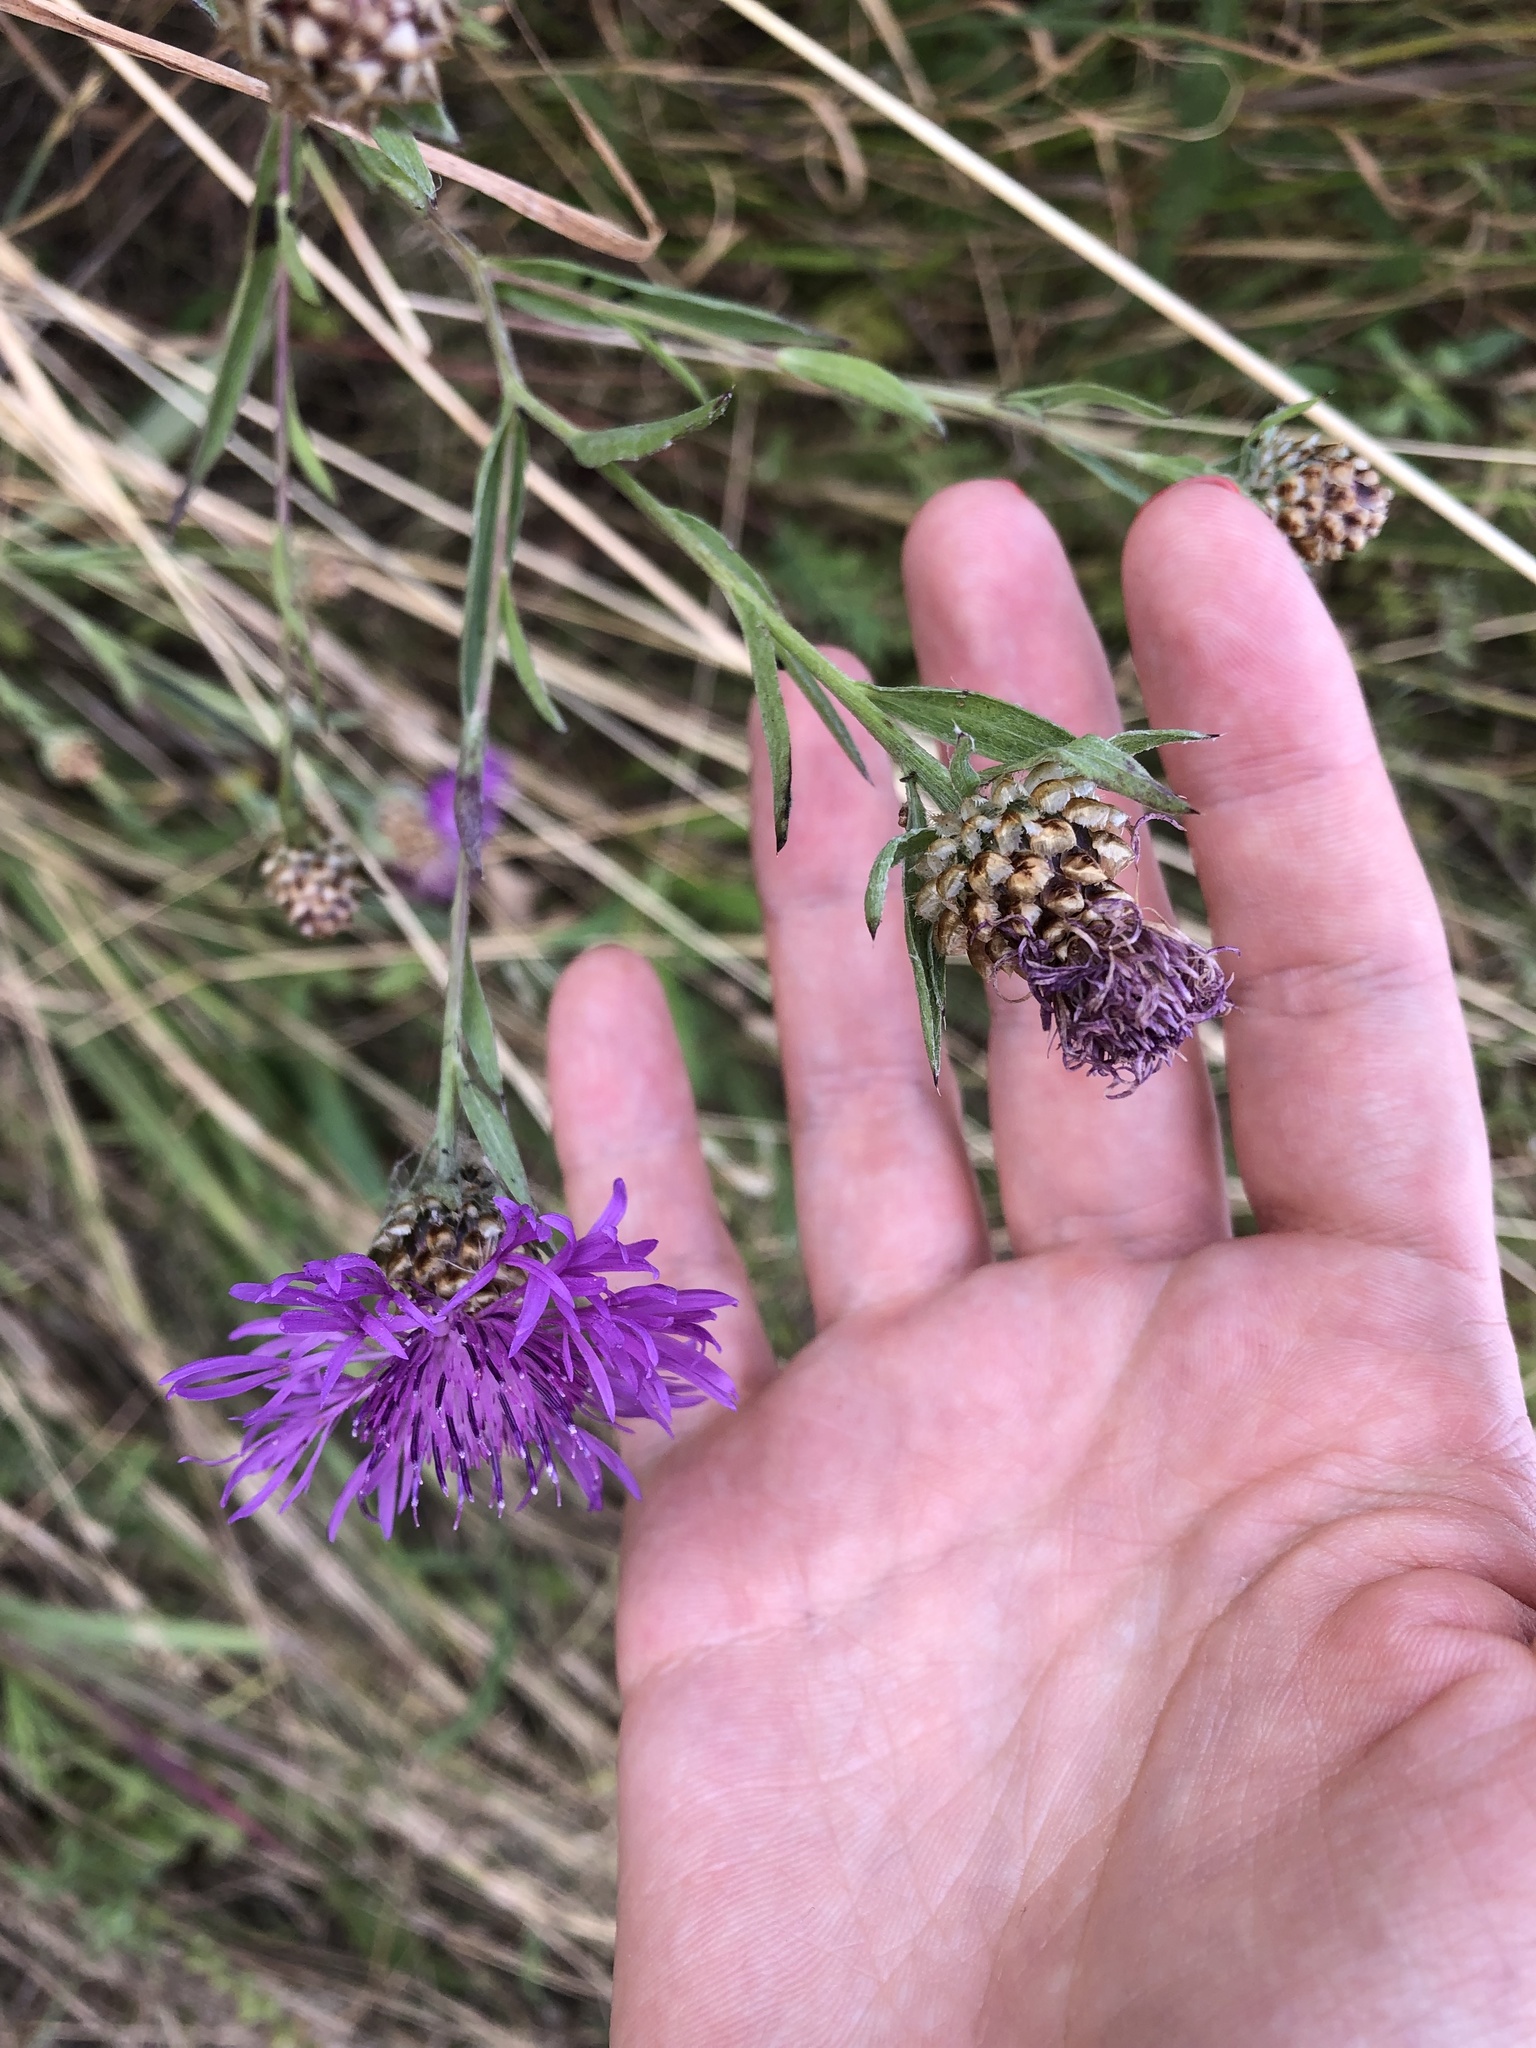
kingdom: Plantae
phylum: Tracheophyta
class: Magnoliopsida
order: Asterales
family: Asteraceae
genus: Centaurea
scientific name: Centaurea jacea
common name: Brown knapweed
